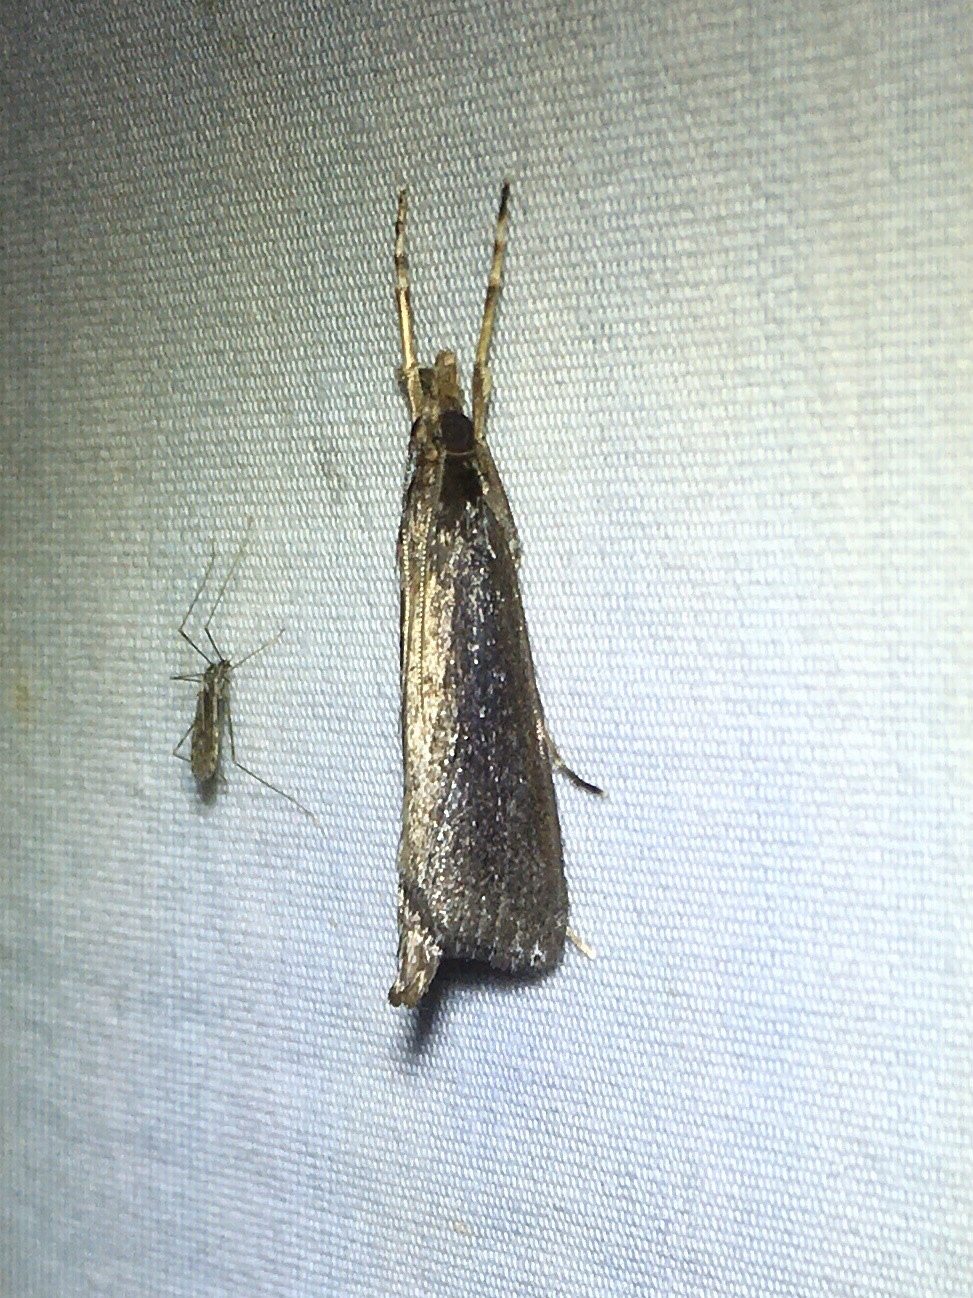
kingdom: Animalia
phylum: Arthropoda
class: Insecta
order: Lepidoptera
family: Crambidae
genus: Carectocultus
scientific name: Carectocultus perstrialis
